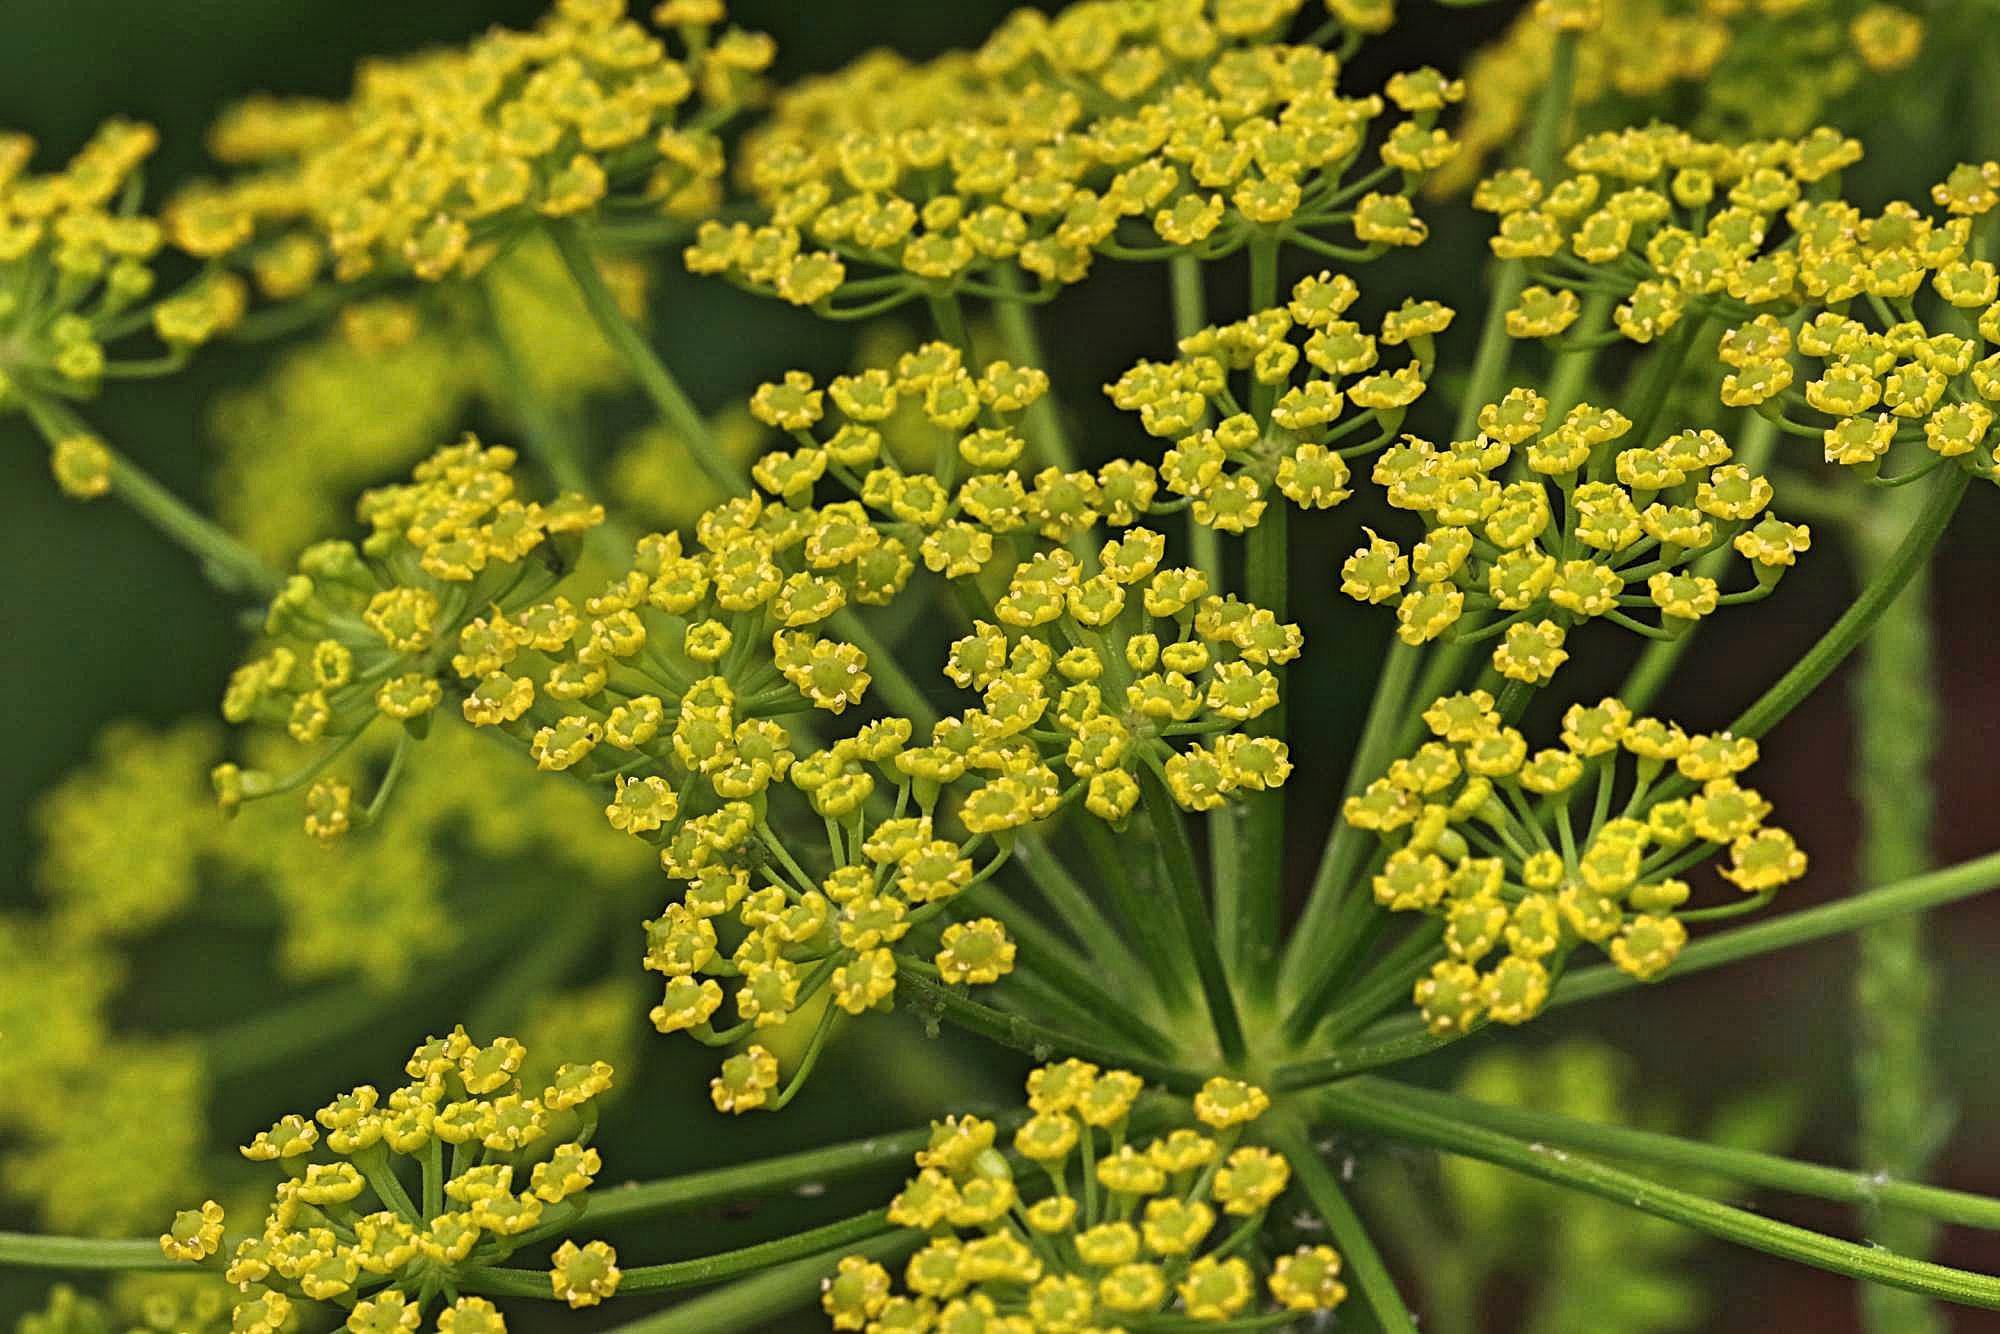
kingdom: Plantae
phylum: Tracheophyta
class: Magnoliopsida
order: Apiales
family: Apiaceae
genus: Pastinaca
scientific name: Pastinaca sativa
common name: Wild parsnip
